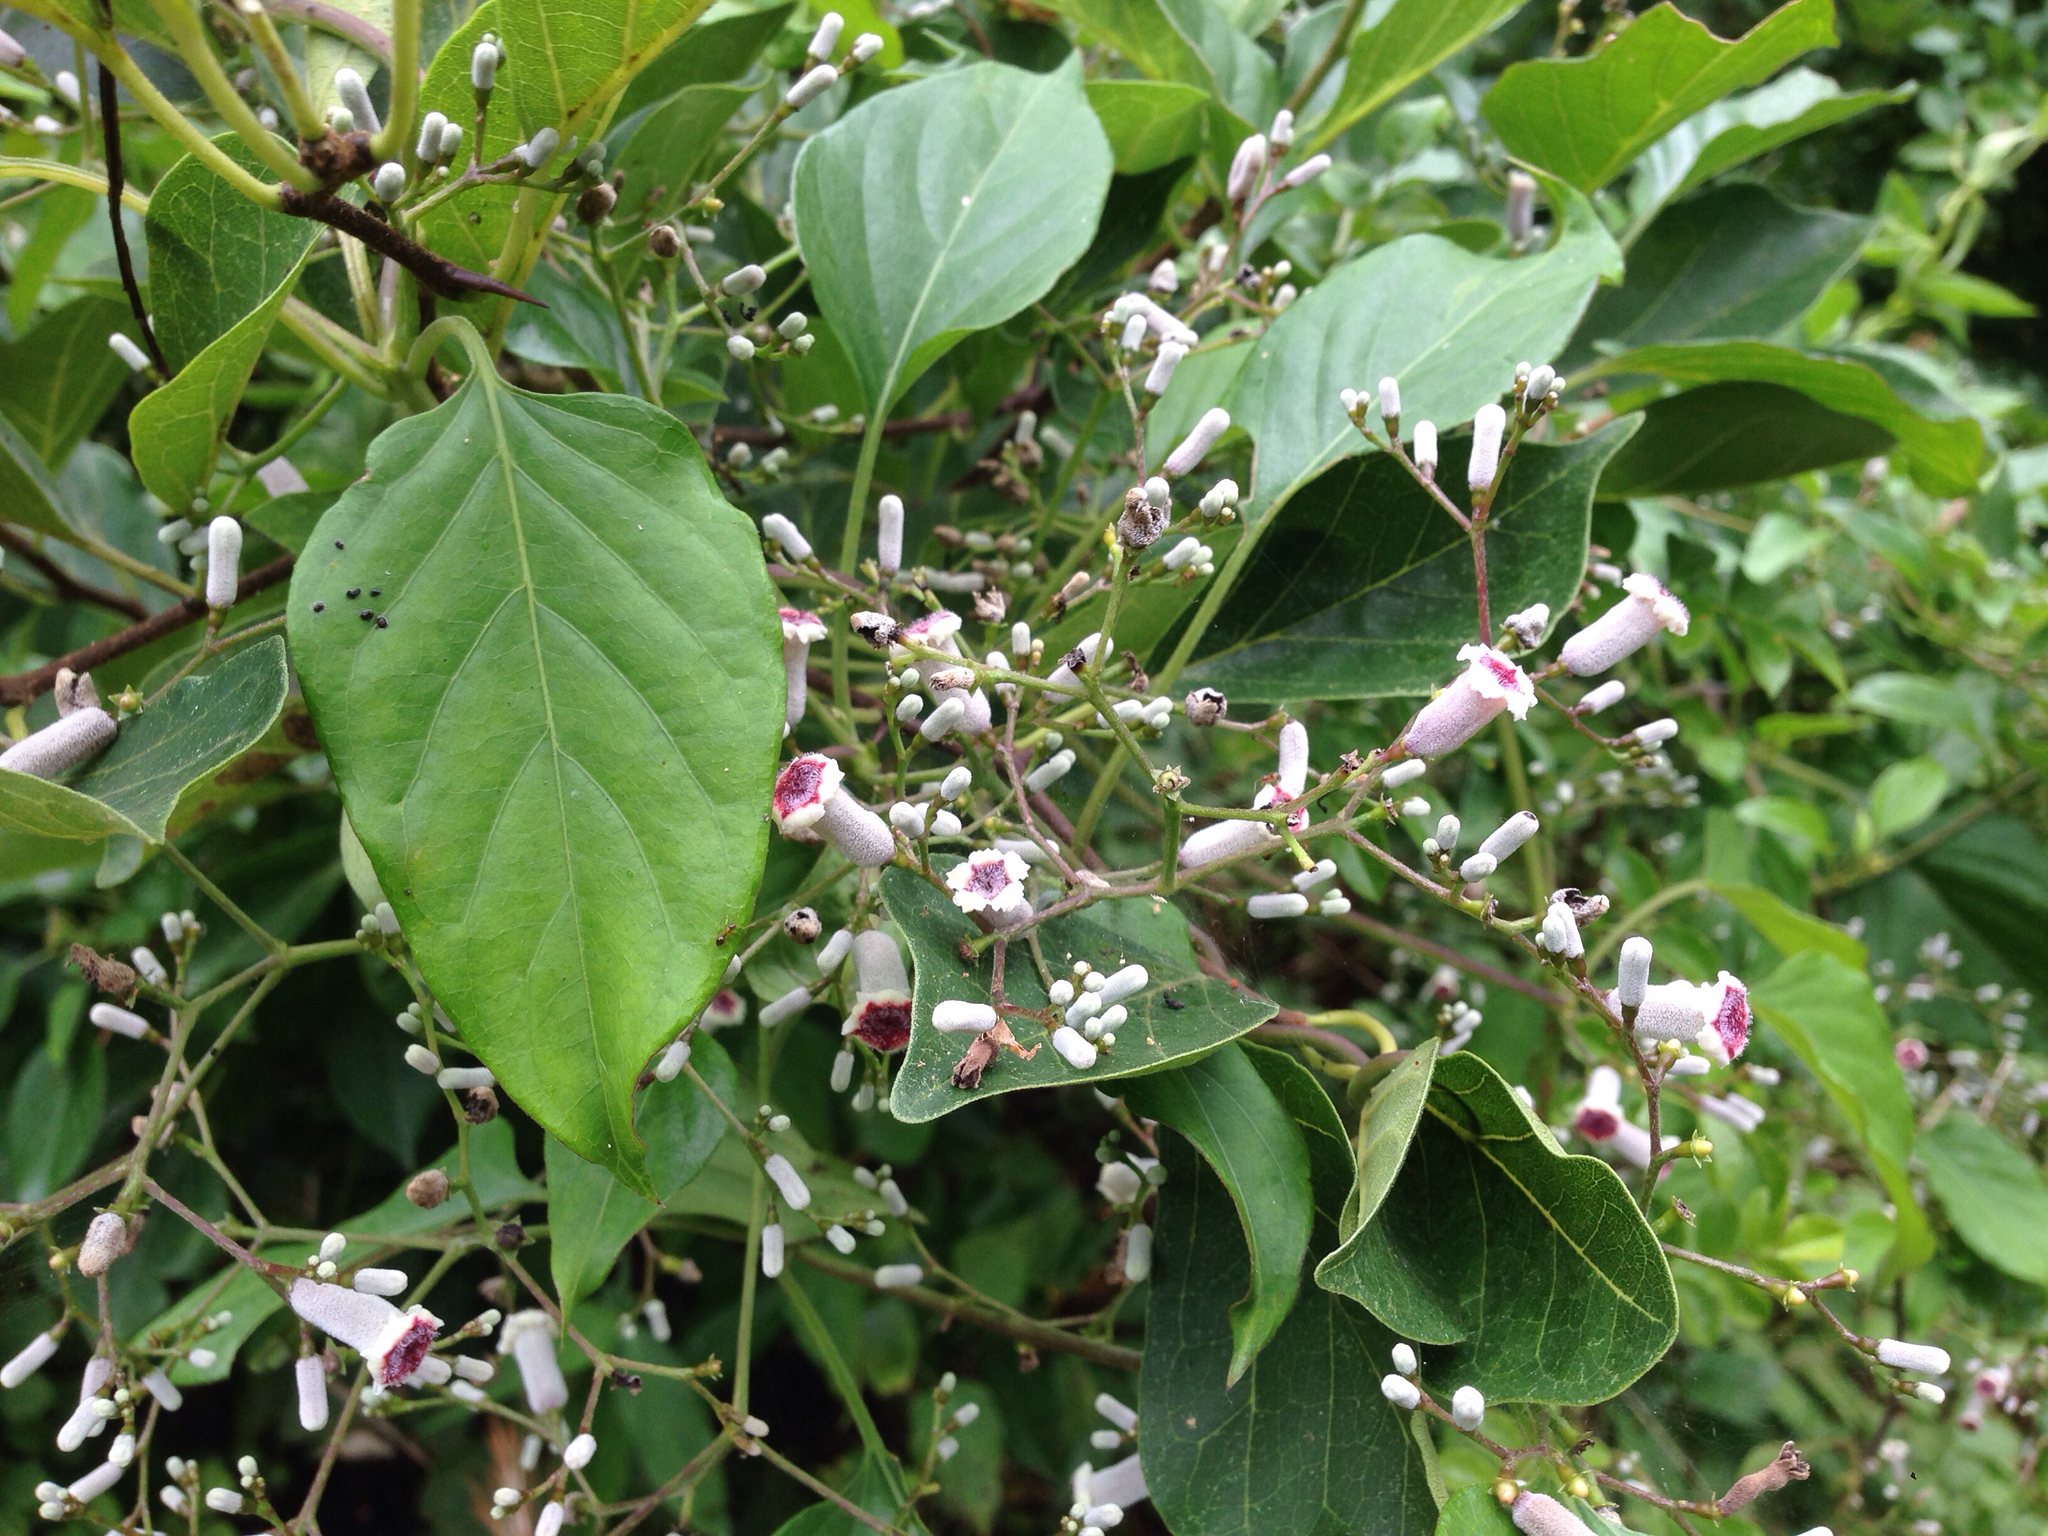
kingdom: Plantae
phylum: Tracheophyta
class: Magnoliopsida
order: Gentianales
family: Rubiaceae
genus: Paederia
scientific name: Paederia foetida
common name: Stinkvine
